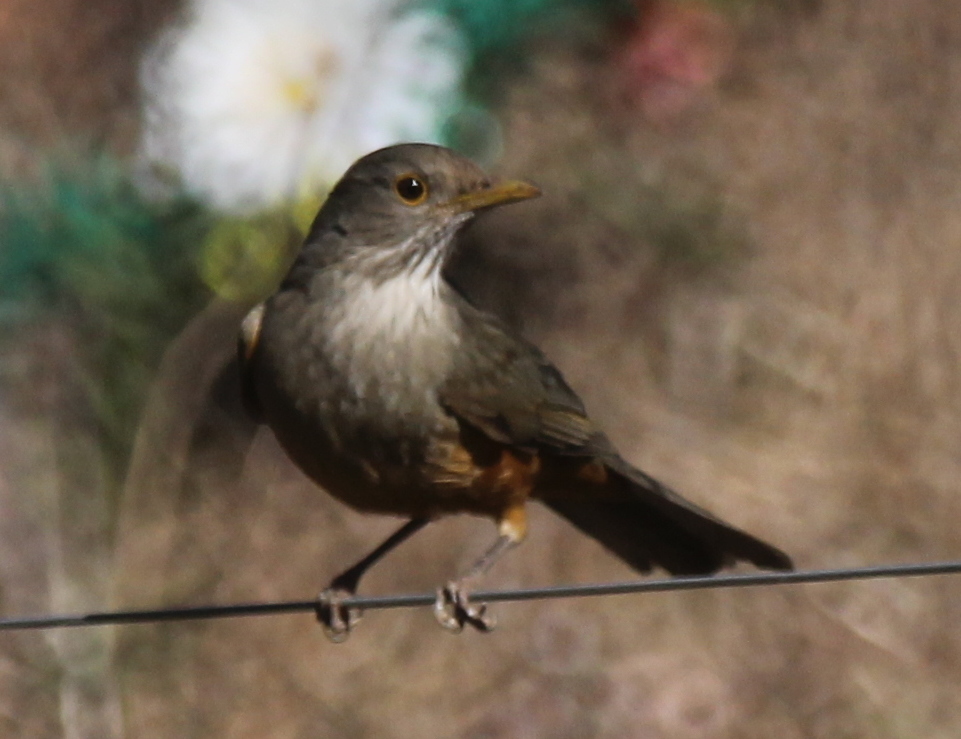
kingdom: Animalia
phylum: Chordata
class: Aves
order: Passeriformes
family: Turdidae
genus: Turdus
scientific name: Turdus rufiventris
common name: Rufous-bellied thrush
